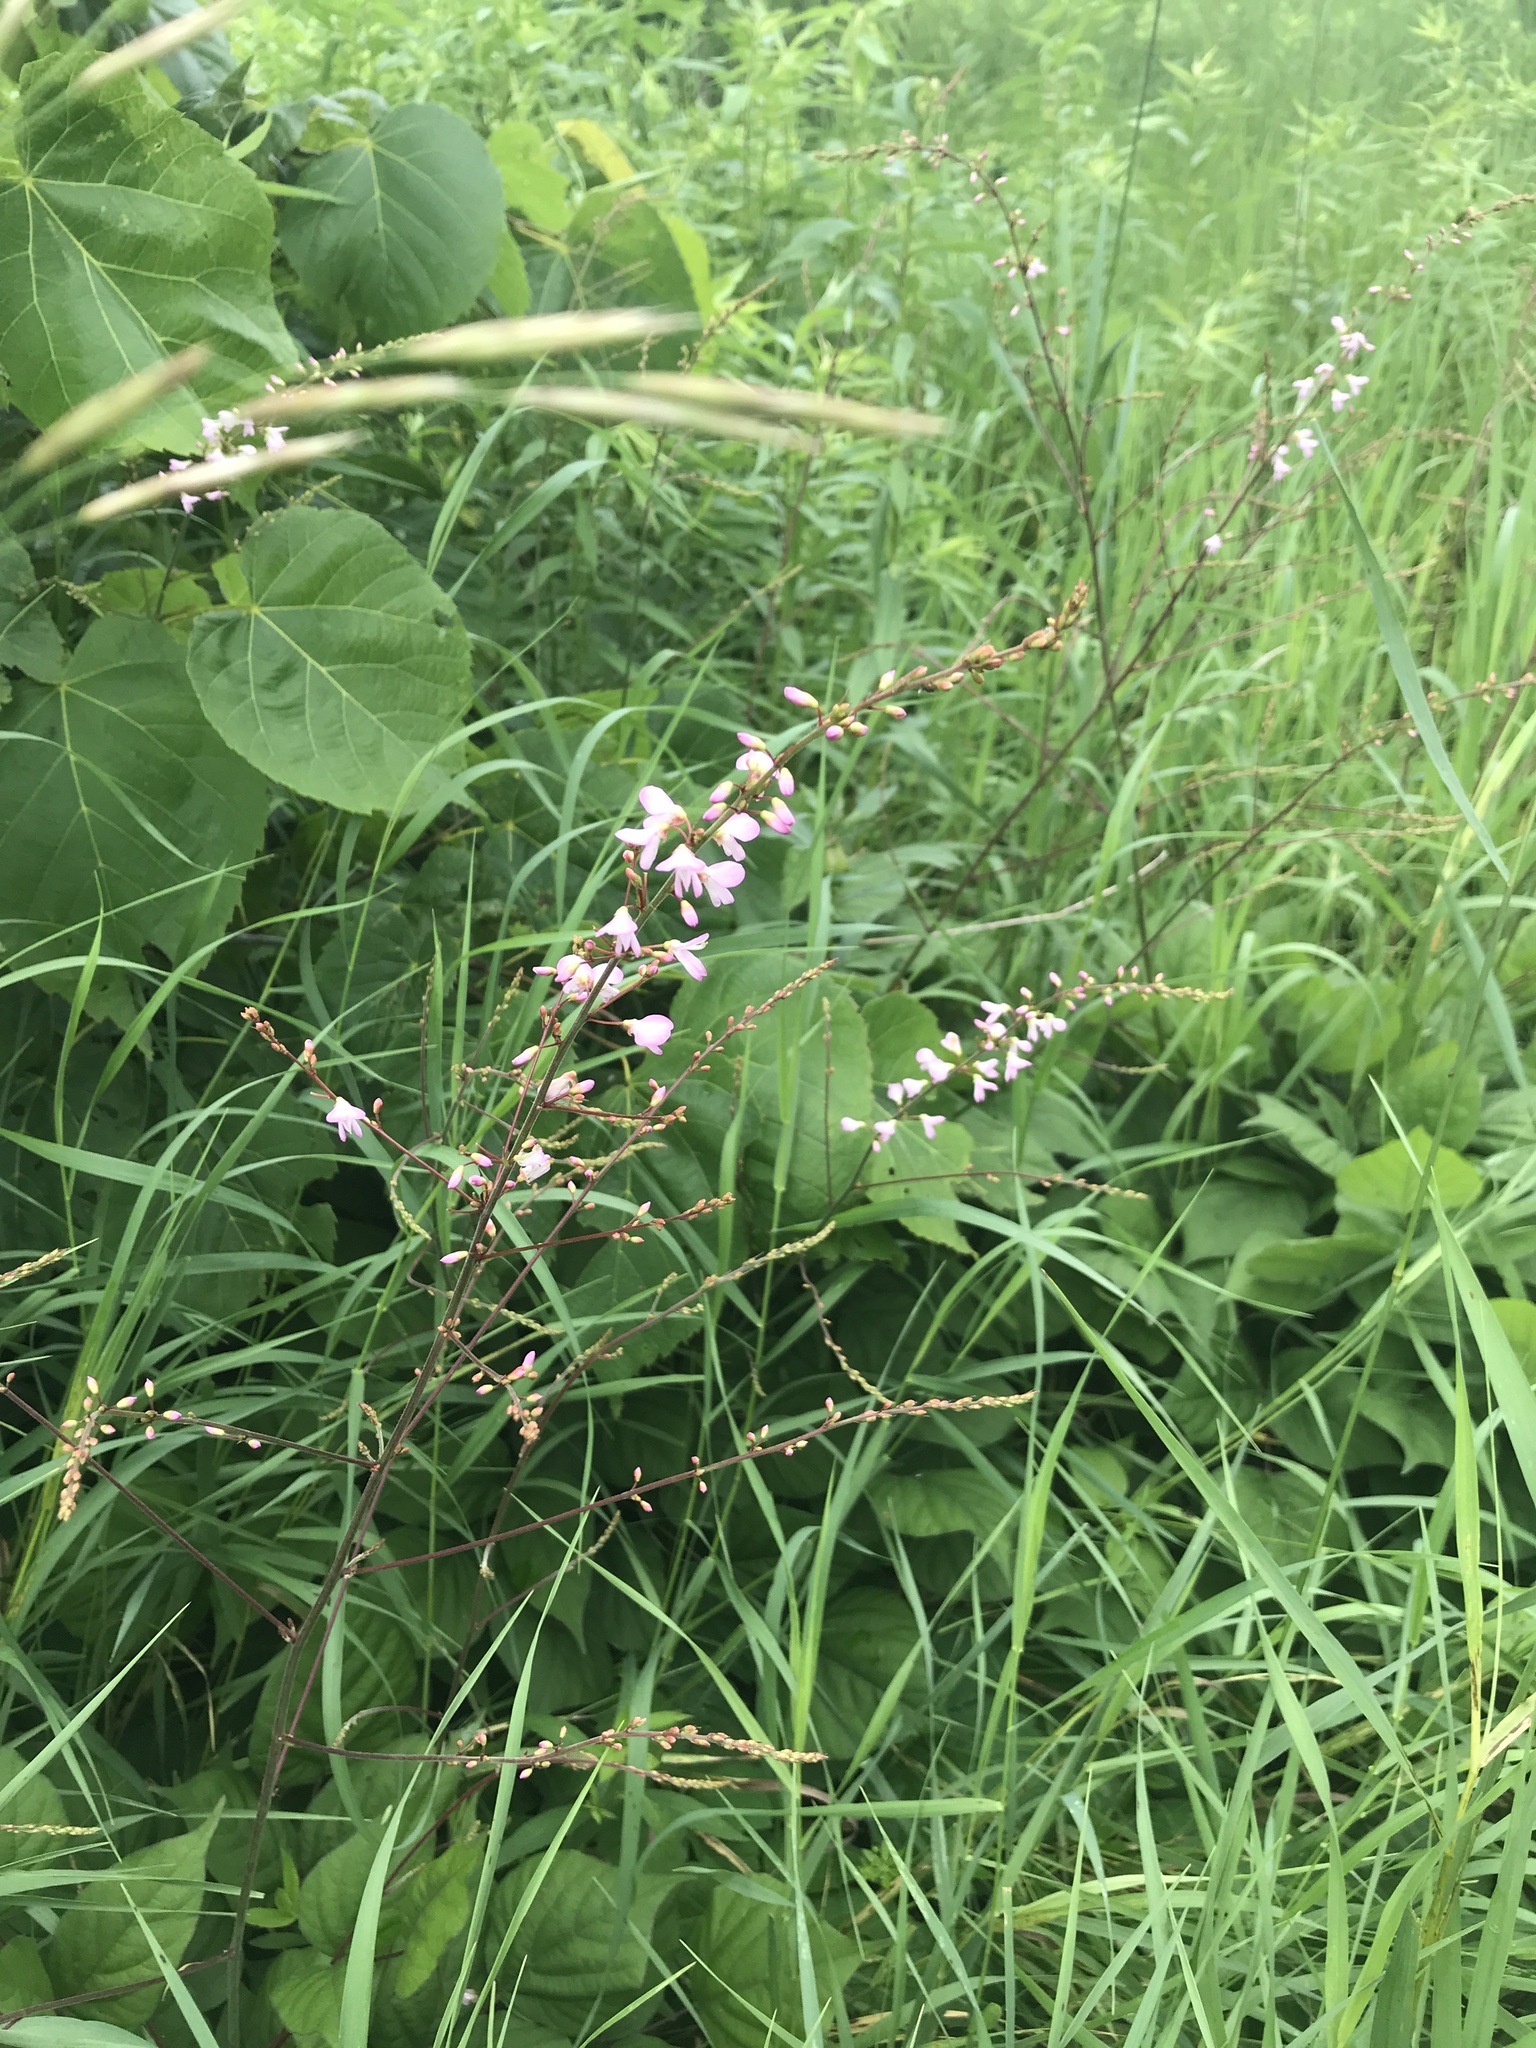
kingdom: Plantae
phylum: Tracheophyta
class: Magnoliopsida
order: Fabales
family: Fabaceae
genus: Hylodesmum
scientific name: Hylodesmum glutinosum
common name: Clustered-leaved tick-trefoil
